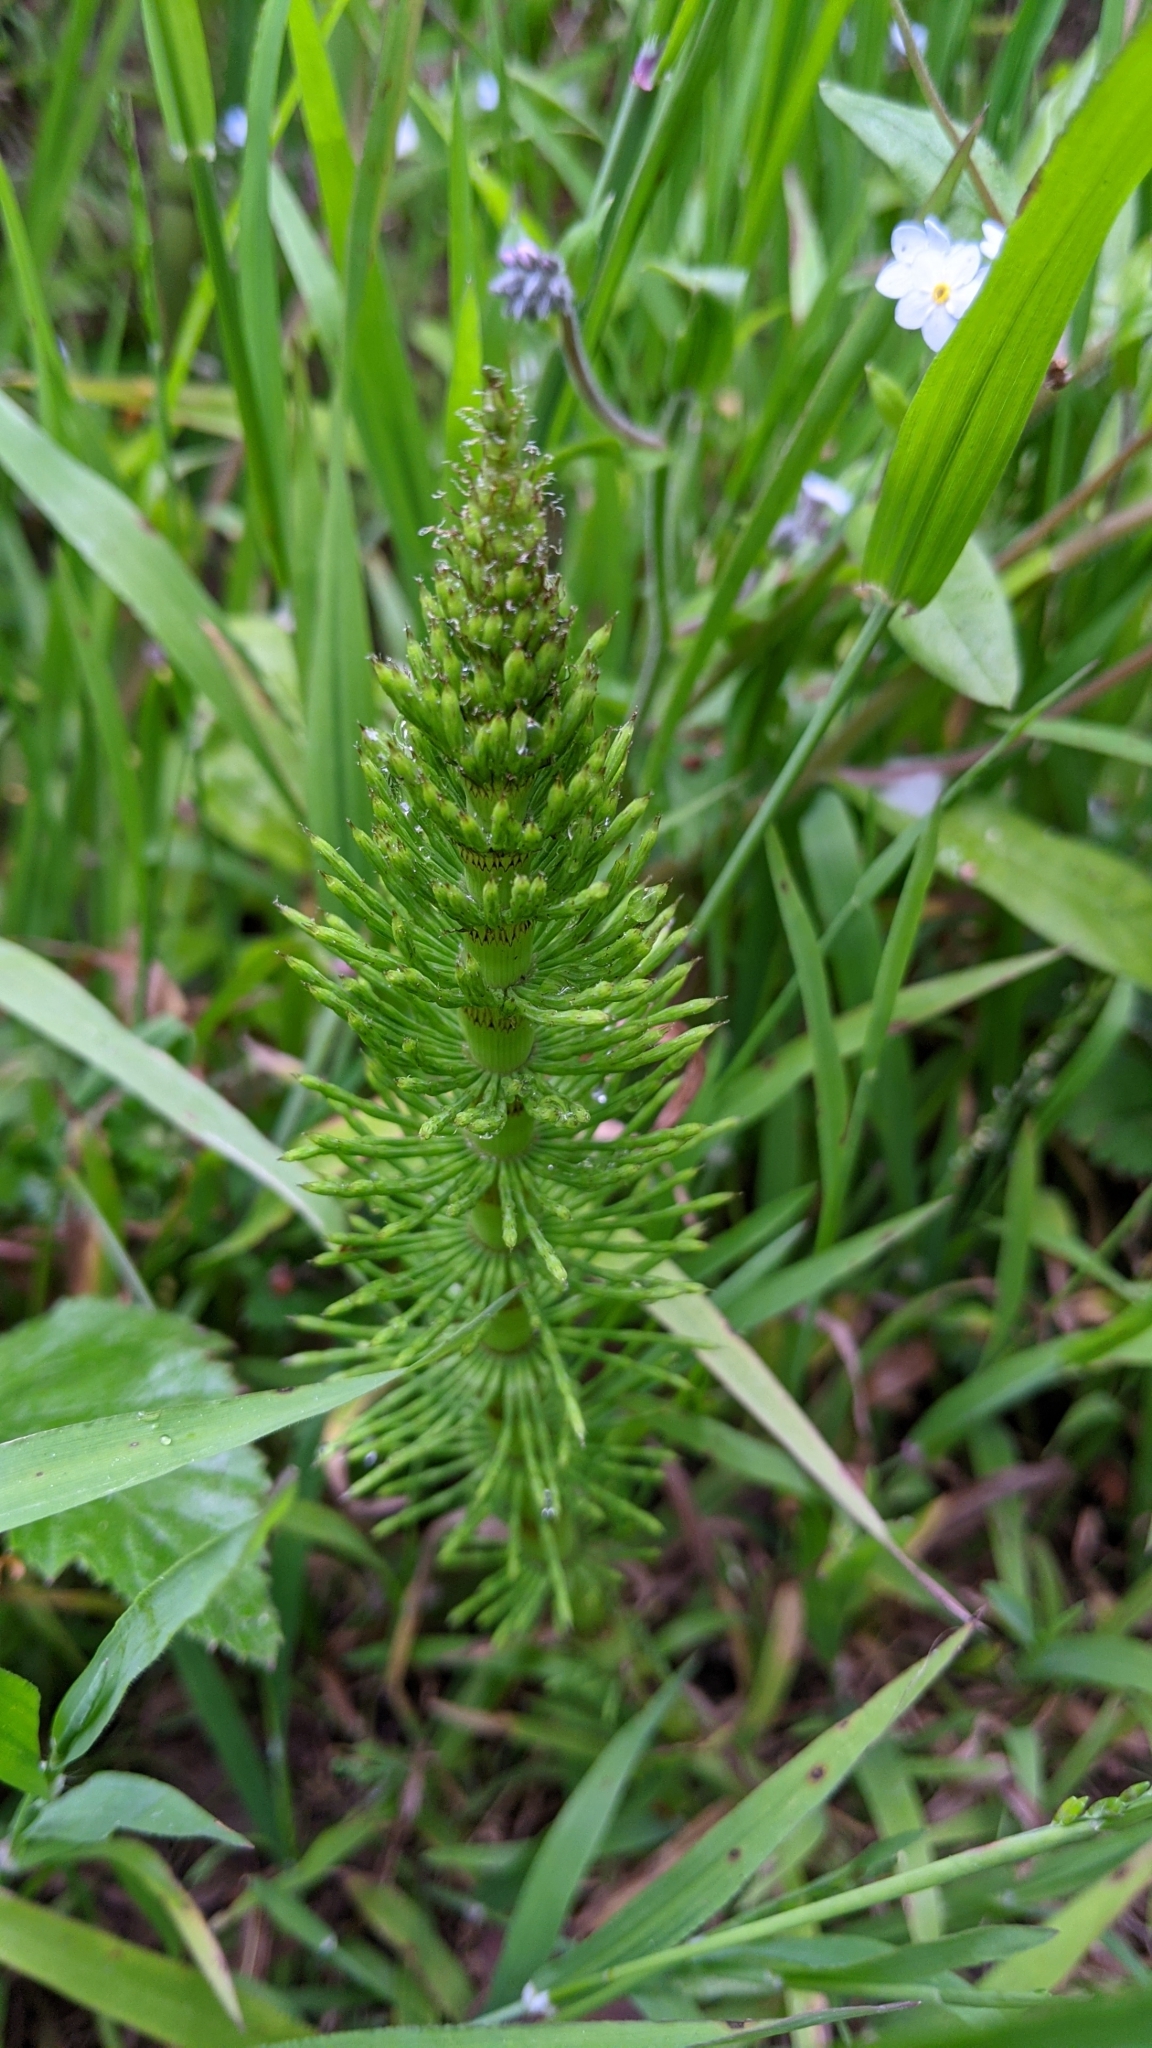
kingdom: Plantae
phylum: Tracheophyta
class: Polypodiopsida
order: Equisetales
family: Equisetaceae
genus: Equisetum
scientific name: Equisetum telmateia
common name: Great horsetail
